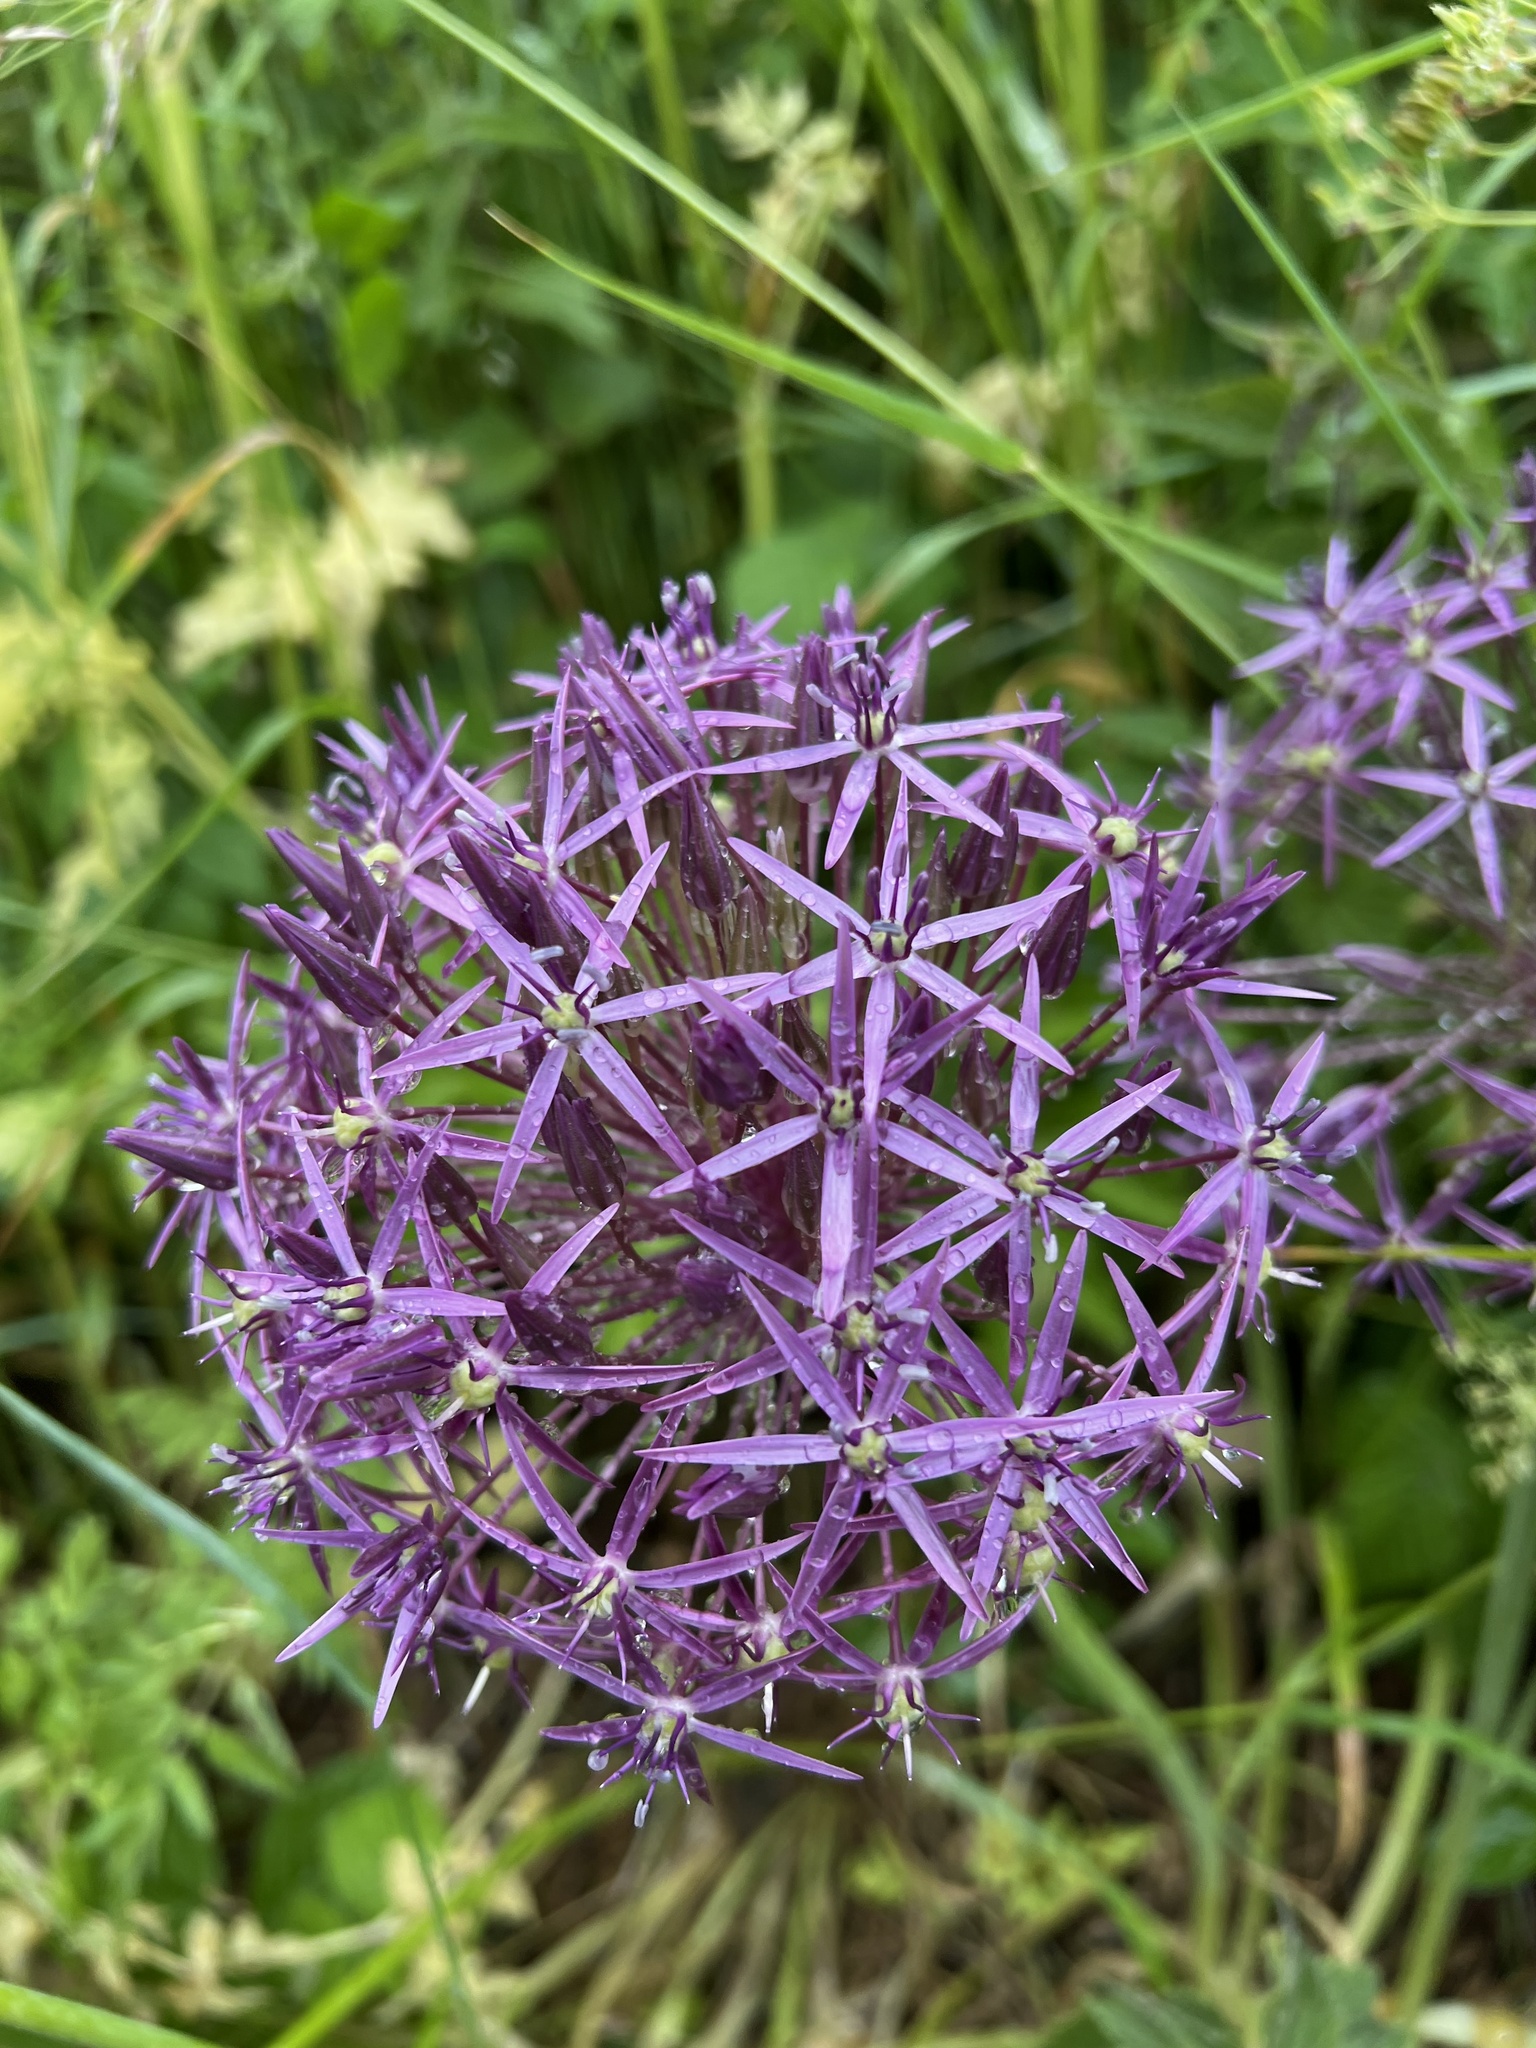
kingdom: Plantae
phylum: Tracheophyta
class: Liliopsida
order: Asparagales
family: Amaryllidaceae
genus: Allium
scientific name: Allium cristophii
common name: Persian onion
